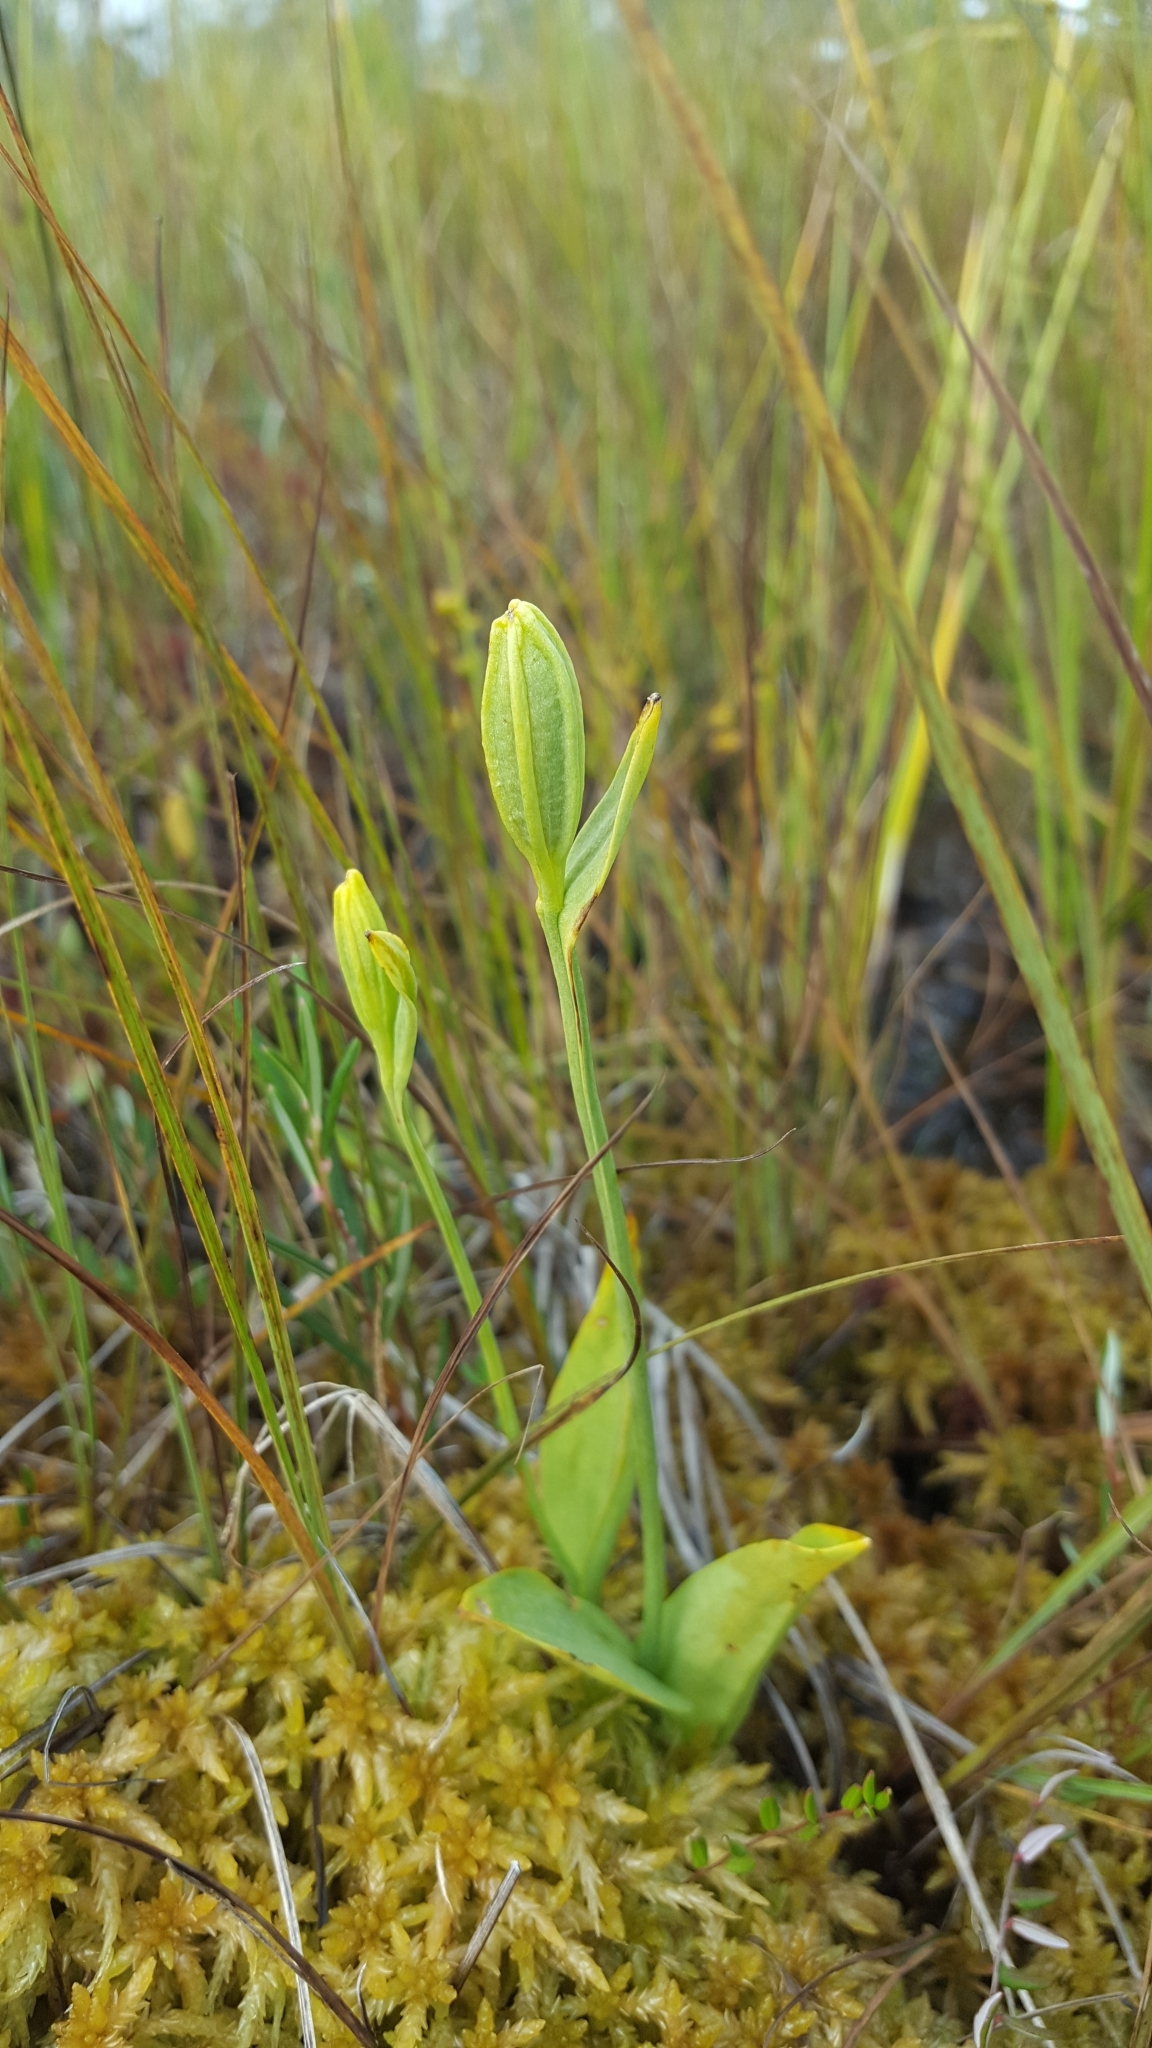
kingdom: Plantae
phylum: Tracheophyta
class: Liliopsida
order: Asparagales
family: Orchidaceae
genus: Pogonia
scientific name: Pogonia ophioglossoides
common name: Rose pogonia
